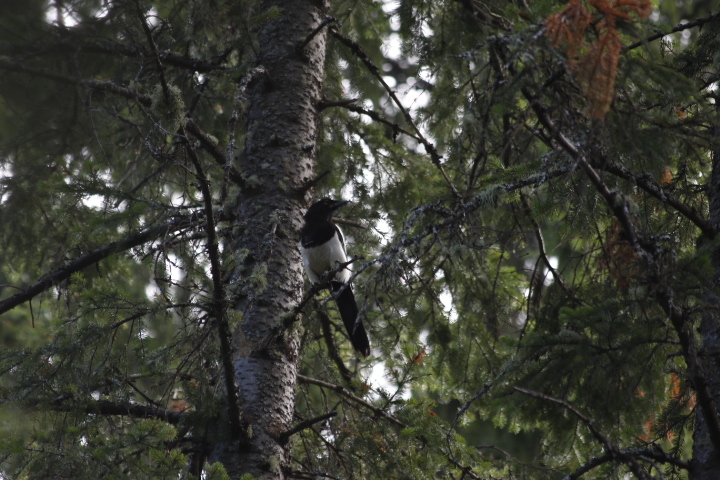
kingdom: Animalia
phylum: Chordata
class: Aves
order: Passeriformes
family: Corvidae
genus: Pica
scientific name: Pica pica
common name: Eurasian magpie
